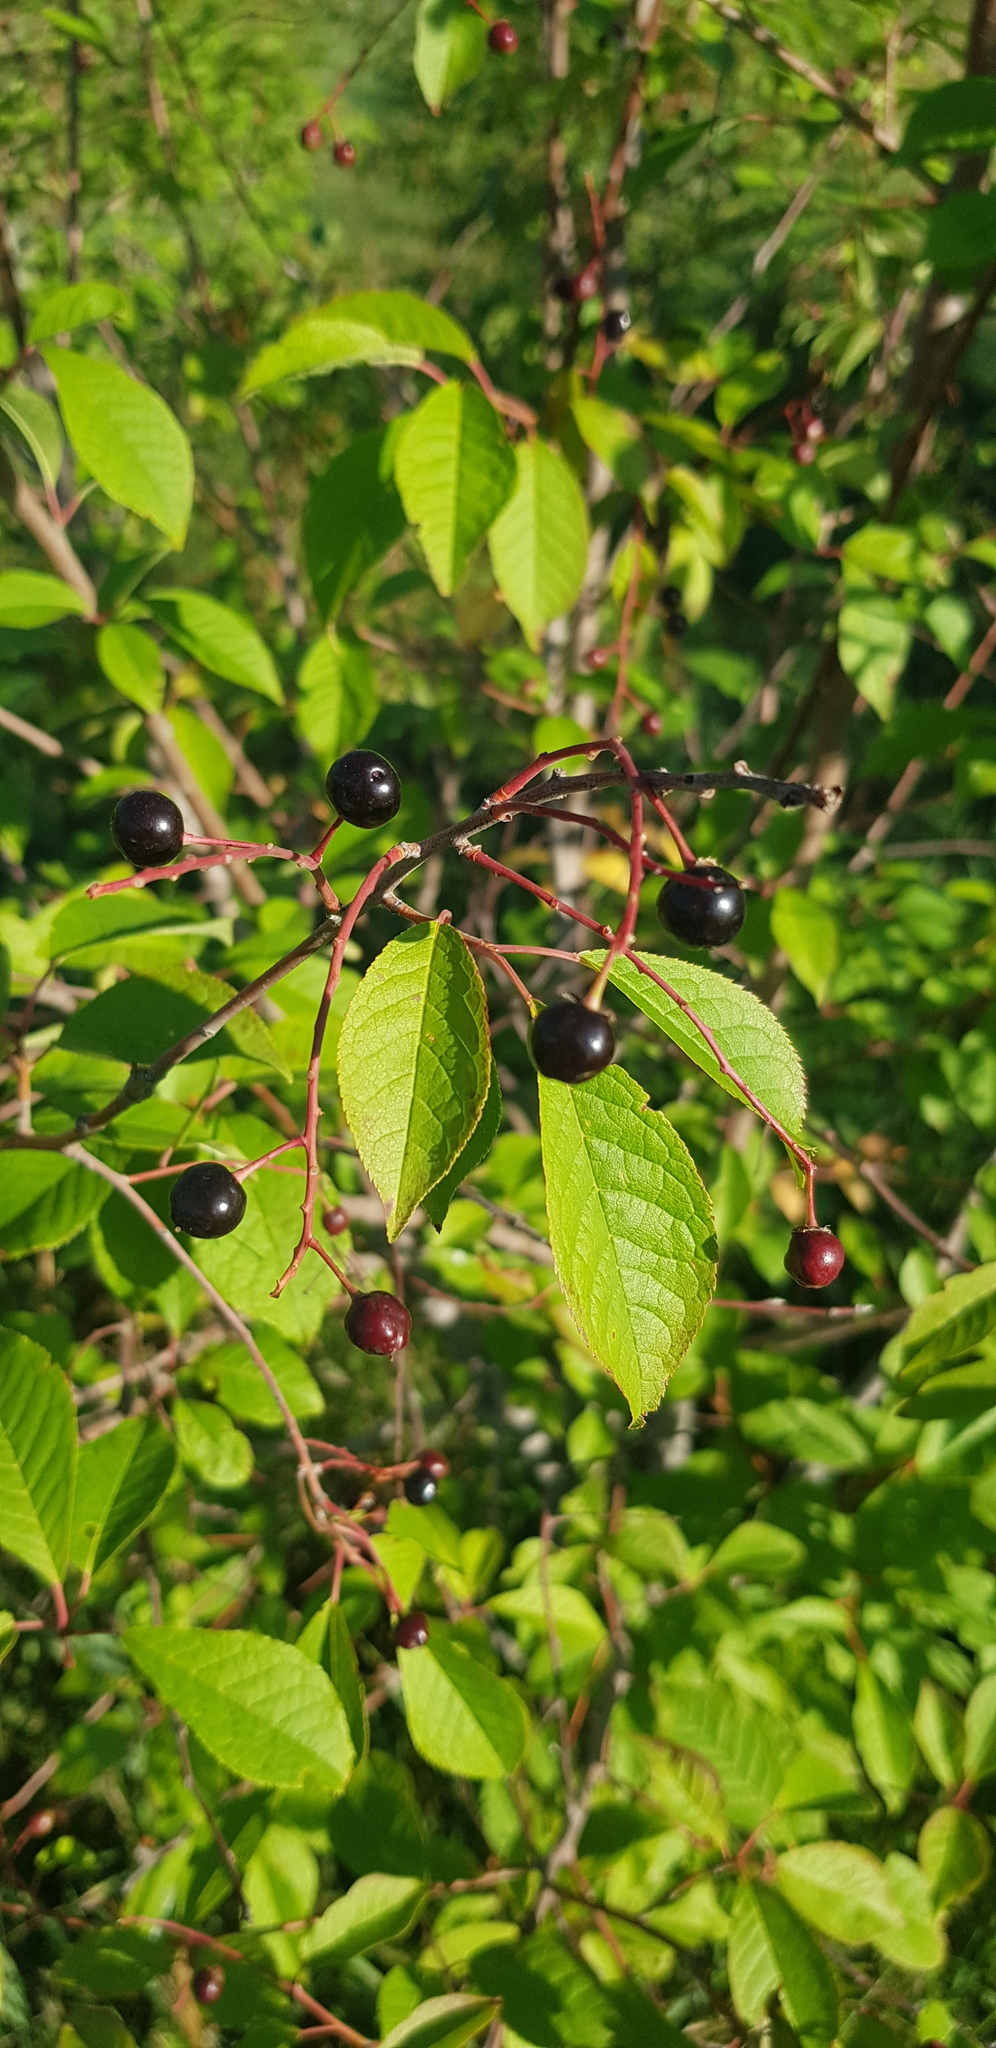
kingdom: Plantae
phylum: Tracheophyta
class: Magnoliopsida
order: Rosales
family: Rosaceae
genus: Prunus
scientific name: Prunus padus
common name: Bird cherry
